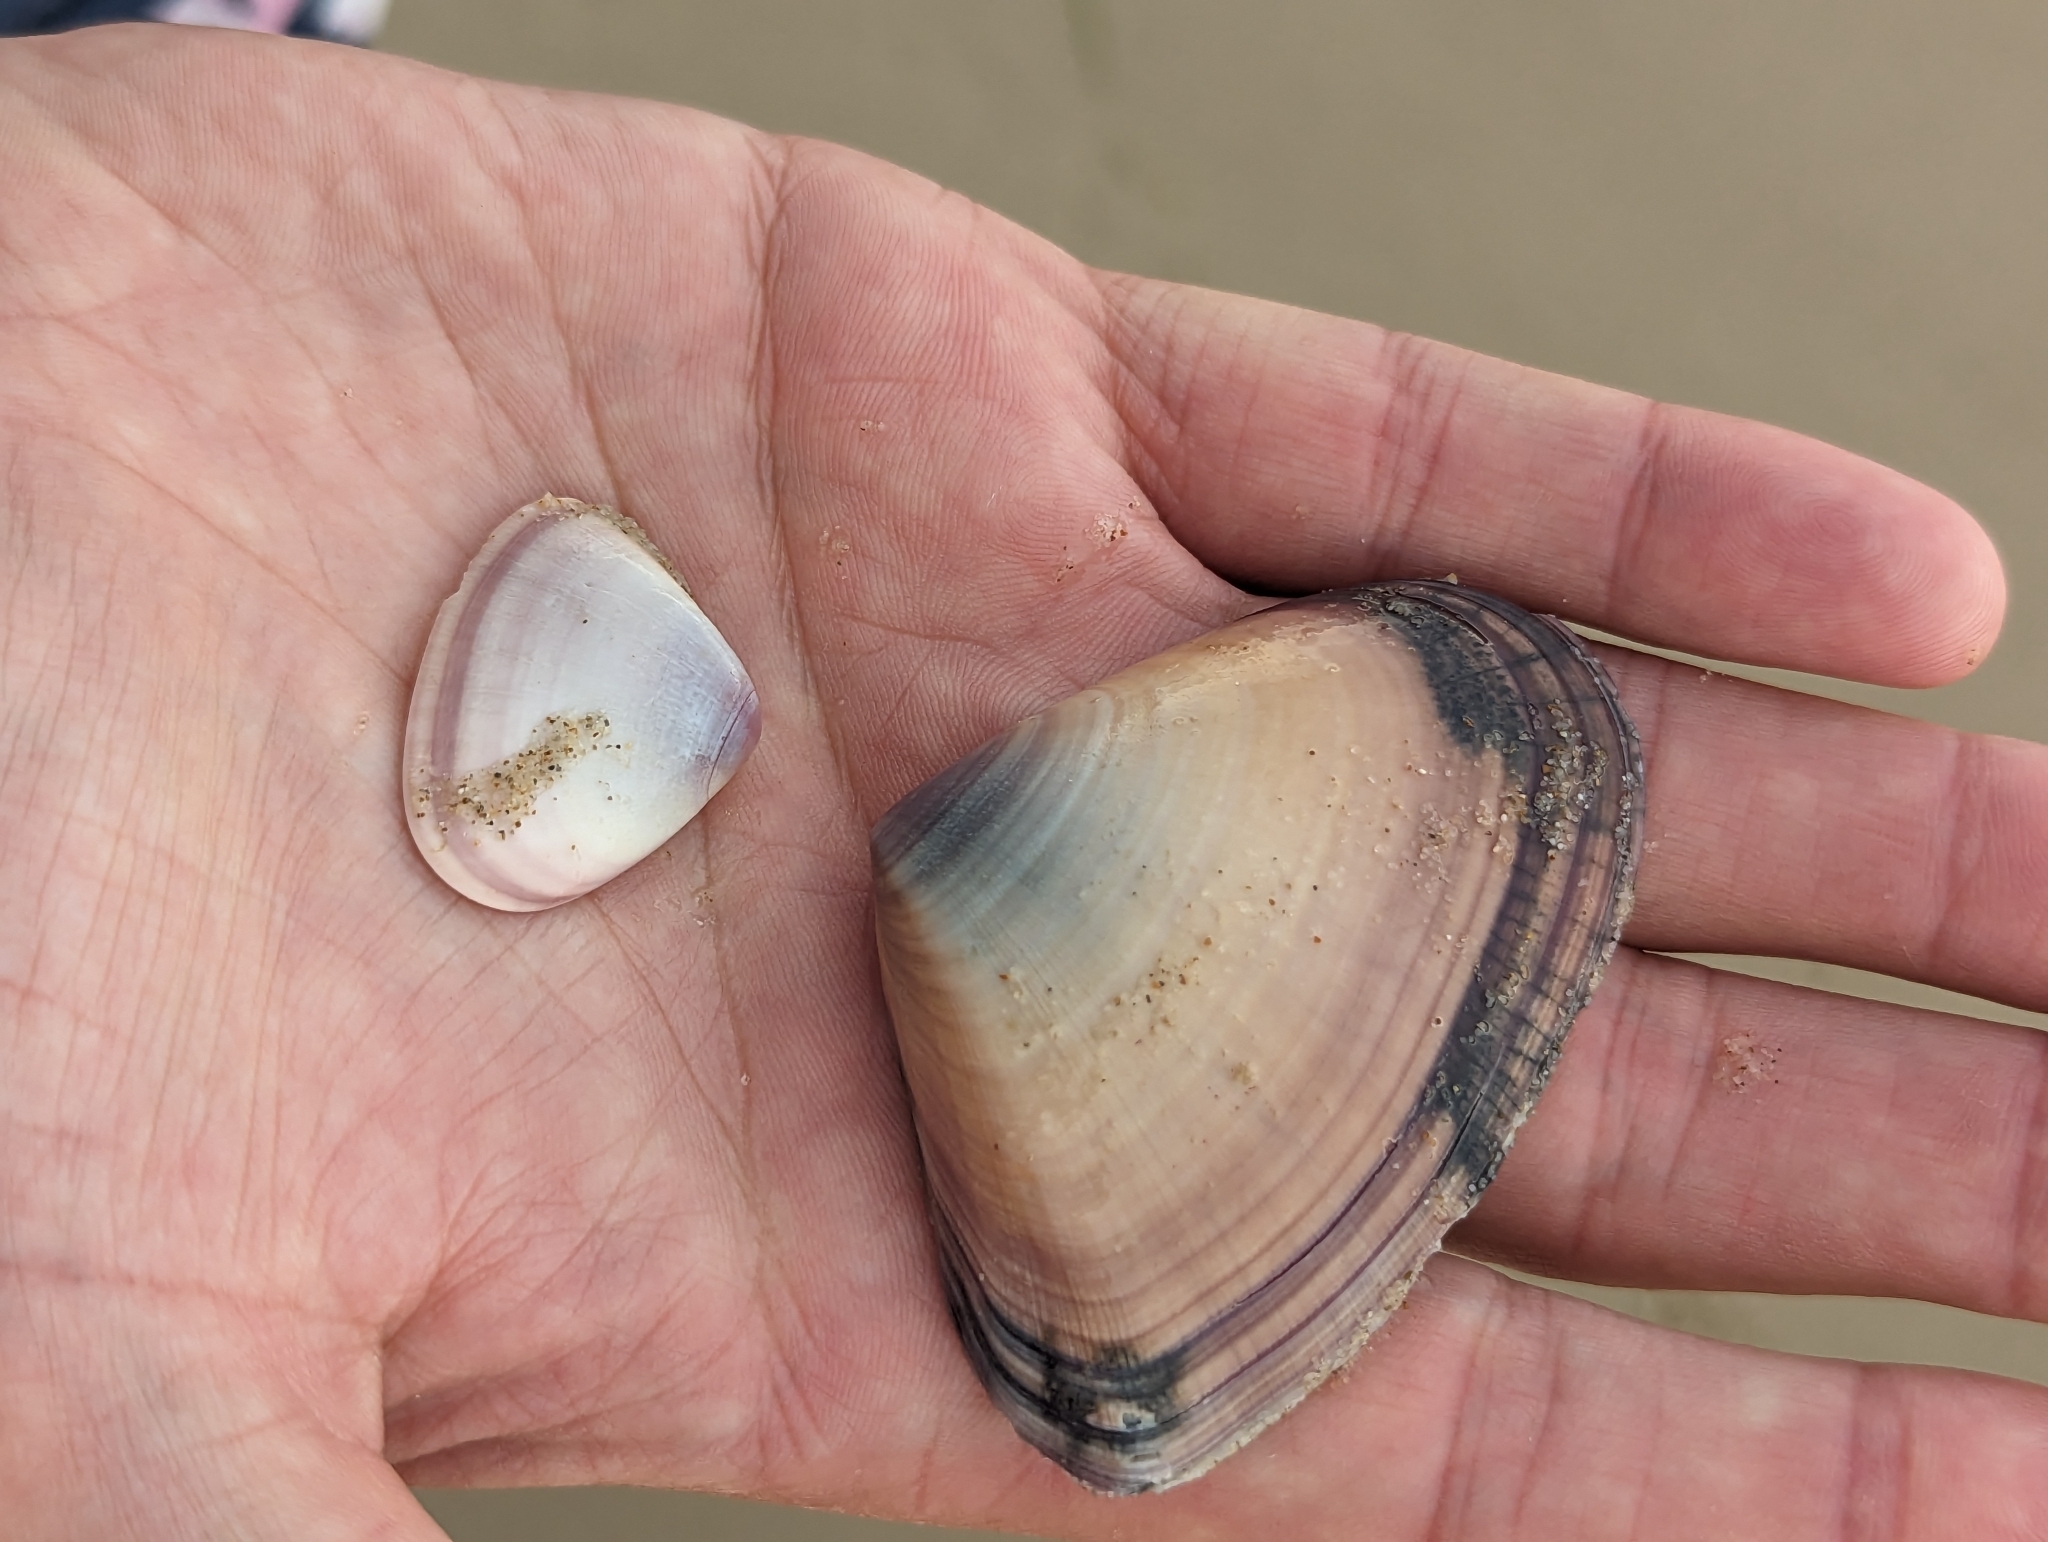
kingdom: Animalia
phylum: Mollusca
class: Bivalvia
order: Cardiida
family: Donacidae
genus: Latona
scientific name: Latona deltoides
